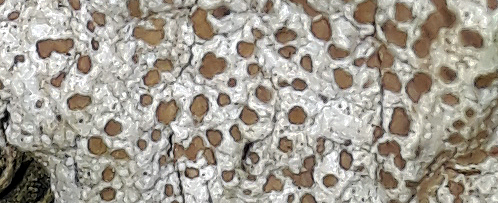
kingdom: Fungi
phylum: Ascomycota
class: Lecanoromycetes
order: Lecanorales
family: Lecanoraceae
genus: Lecanora
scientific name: Lecanora kohu
